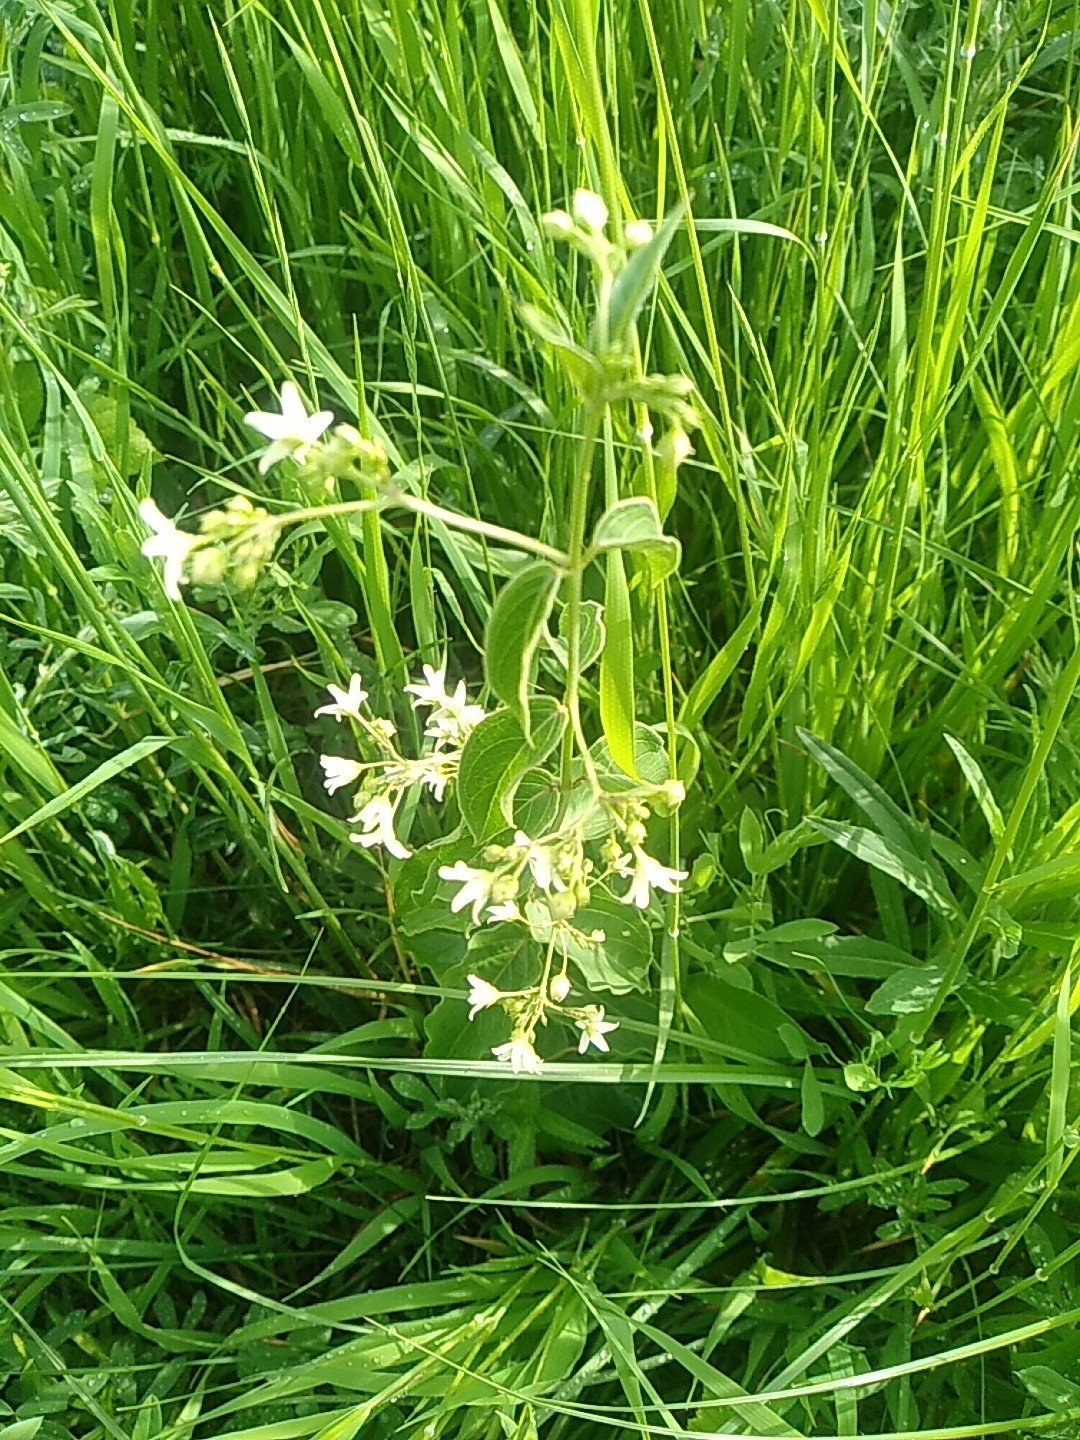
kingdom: Plantae
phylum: Tracheophyta
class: Magnoliopsida
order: Gentianales
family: Apocynaceae
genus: Vincetoxicum
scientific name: Vincetoxicum hirundinaria
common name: White swallowwort
